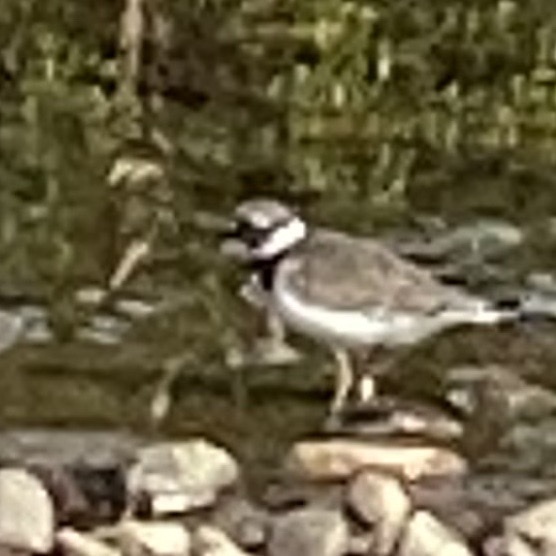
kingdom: Animalia
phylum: Chordata
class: Aves
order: Charadriiformes
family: Charadriidae
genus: Charadrius
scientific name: Charadrius hiaticula
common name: Common ringed plover
